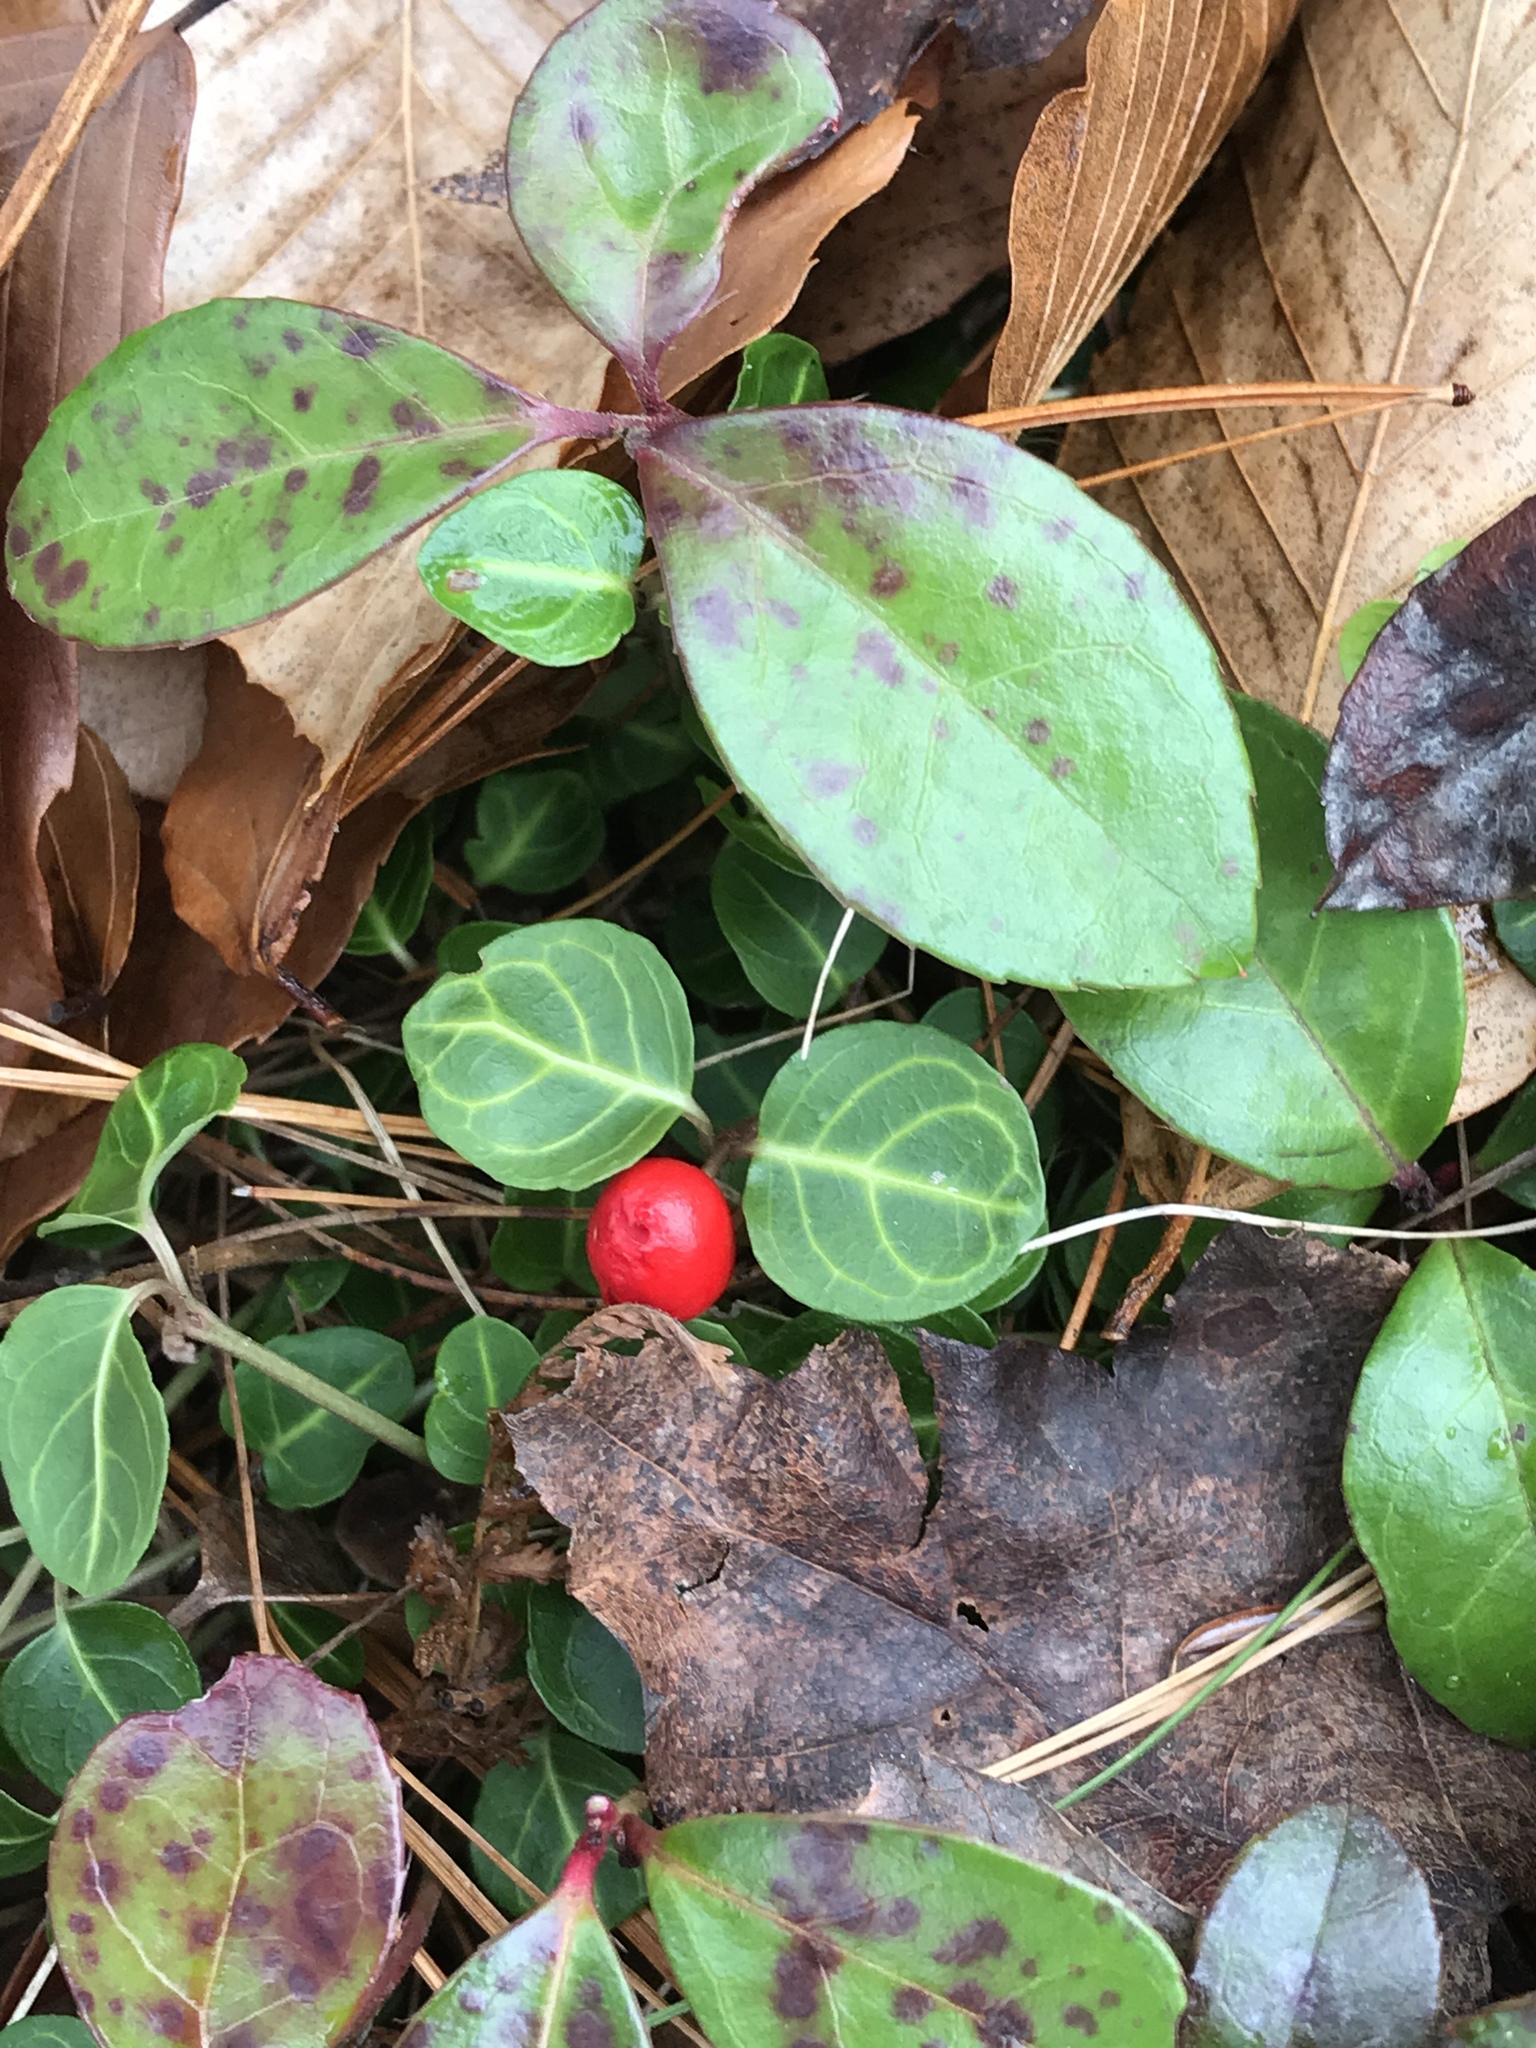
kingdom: Plantae
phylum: Tracheophyta
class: Magnoliopsida
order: Gentianales
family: Rubiaceae
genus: Mitchella
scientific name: Mitchella repens
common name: Partridge-berry
